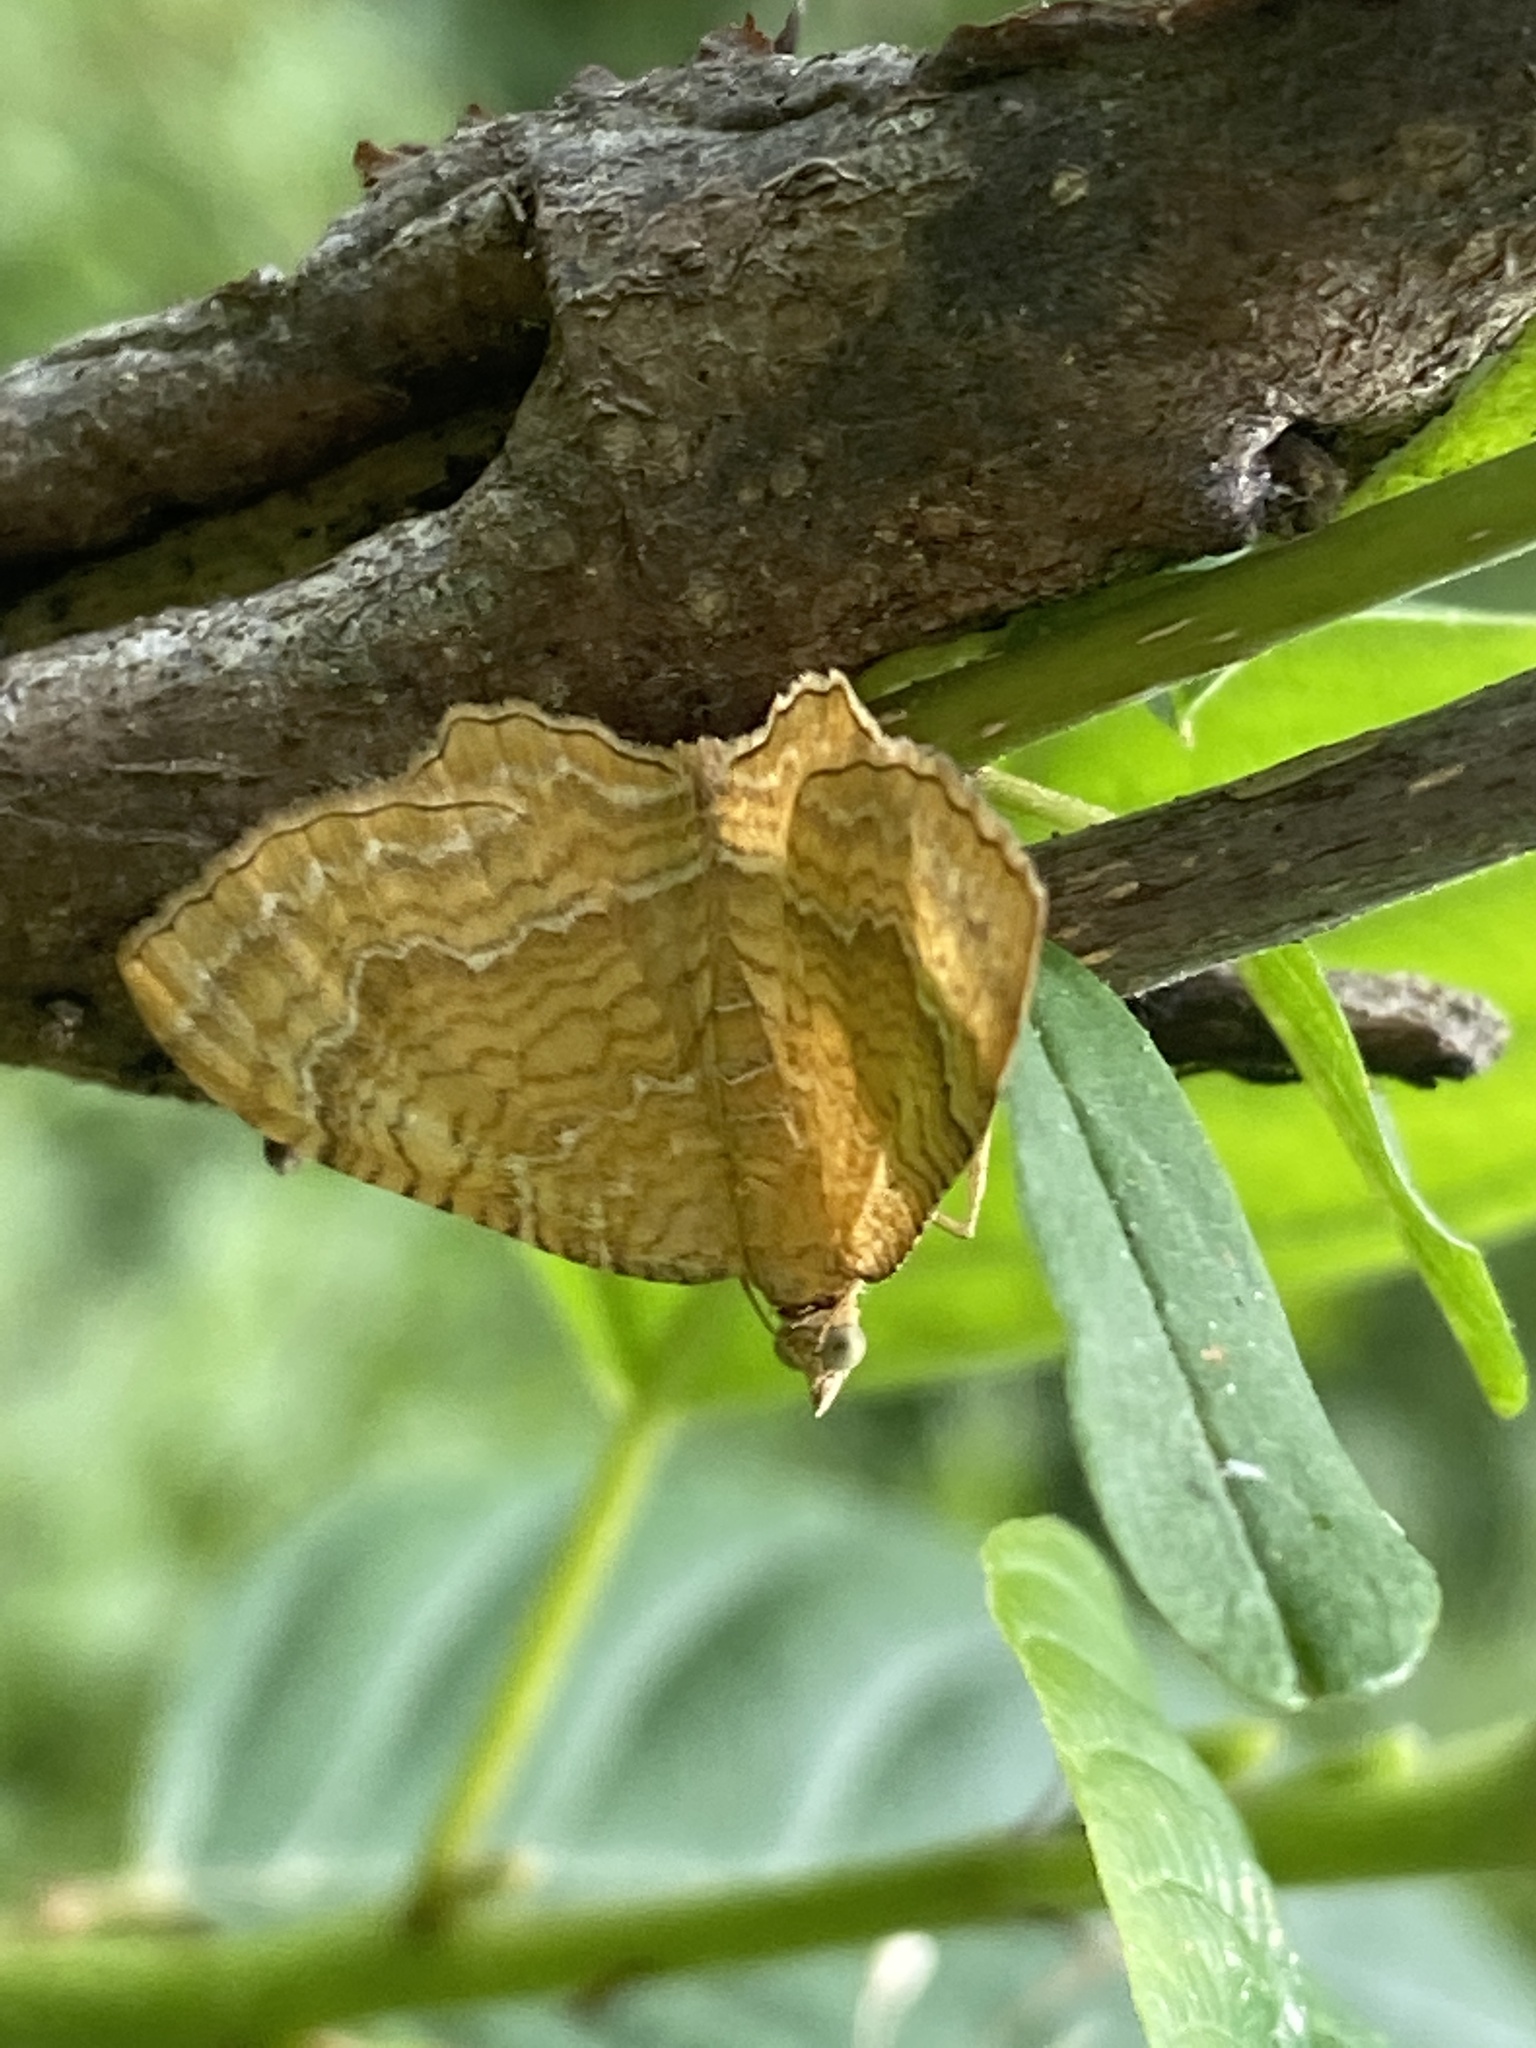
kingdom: Animalia
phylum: Arthropoda
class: Insecta
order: Lepidoptera
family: Geometridae
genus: Camptogramma
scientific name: Camptogramma bilineata
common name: Yellow shell
